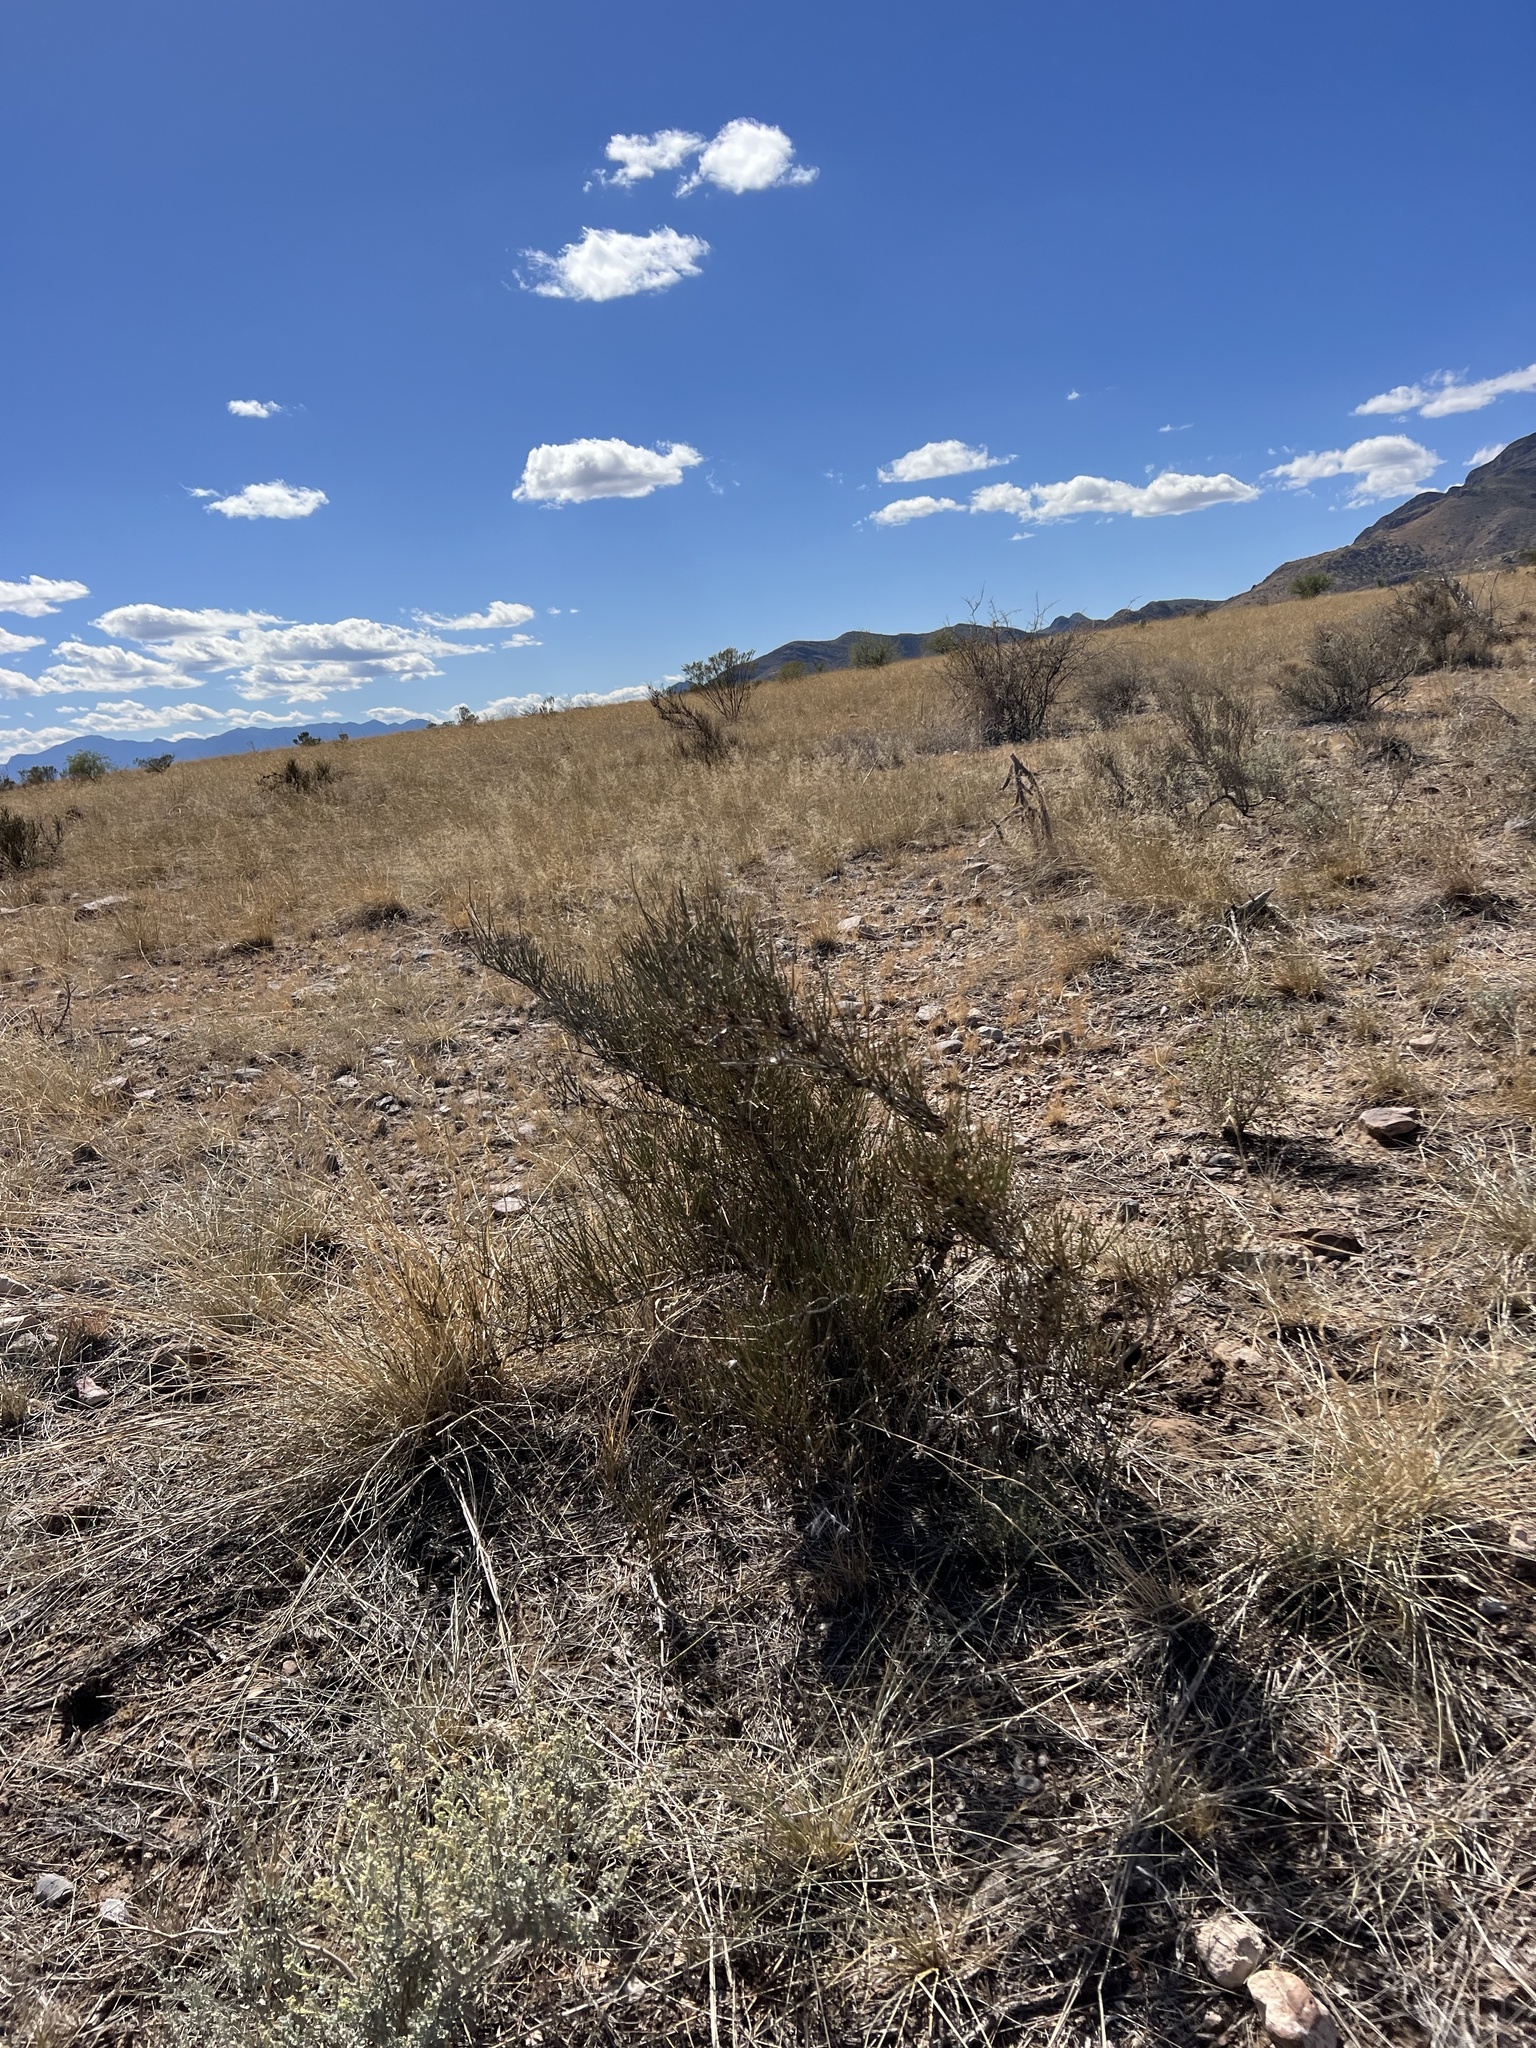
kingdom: Plantae
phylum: Tracheophyta
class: Gnetopsida
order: Ephedrales
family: Ephedraceae
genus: Ephedra
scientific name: Ephedra trifurca
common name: Mexican-tea
